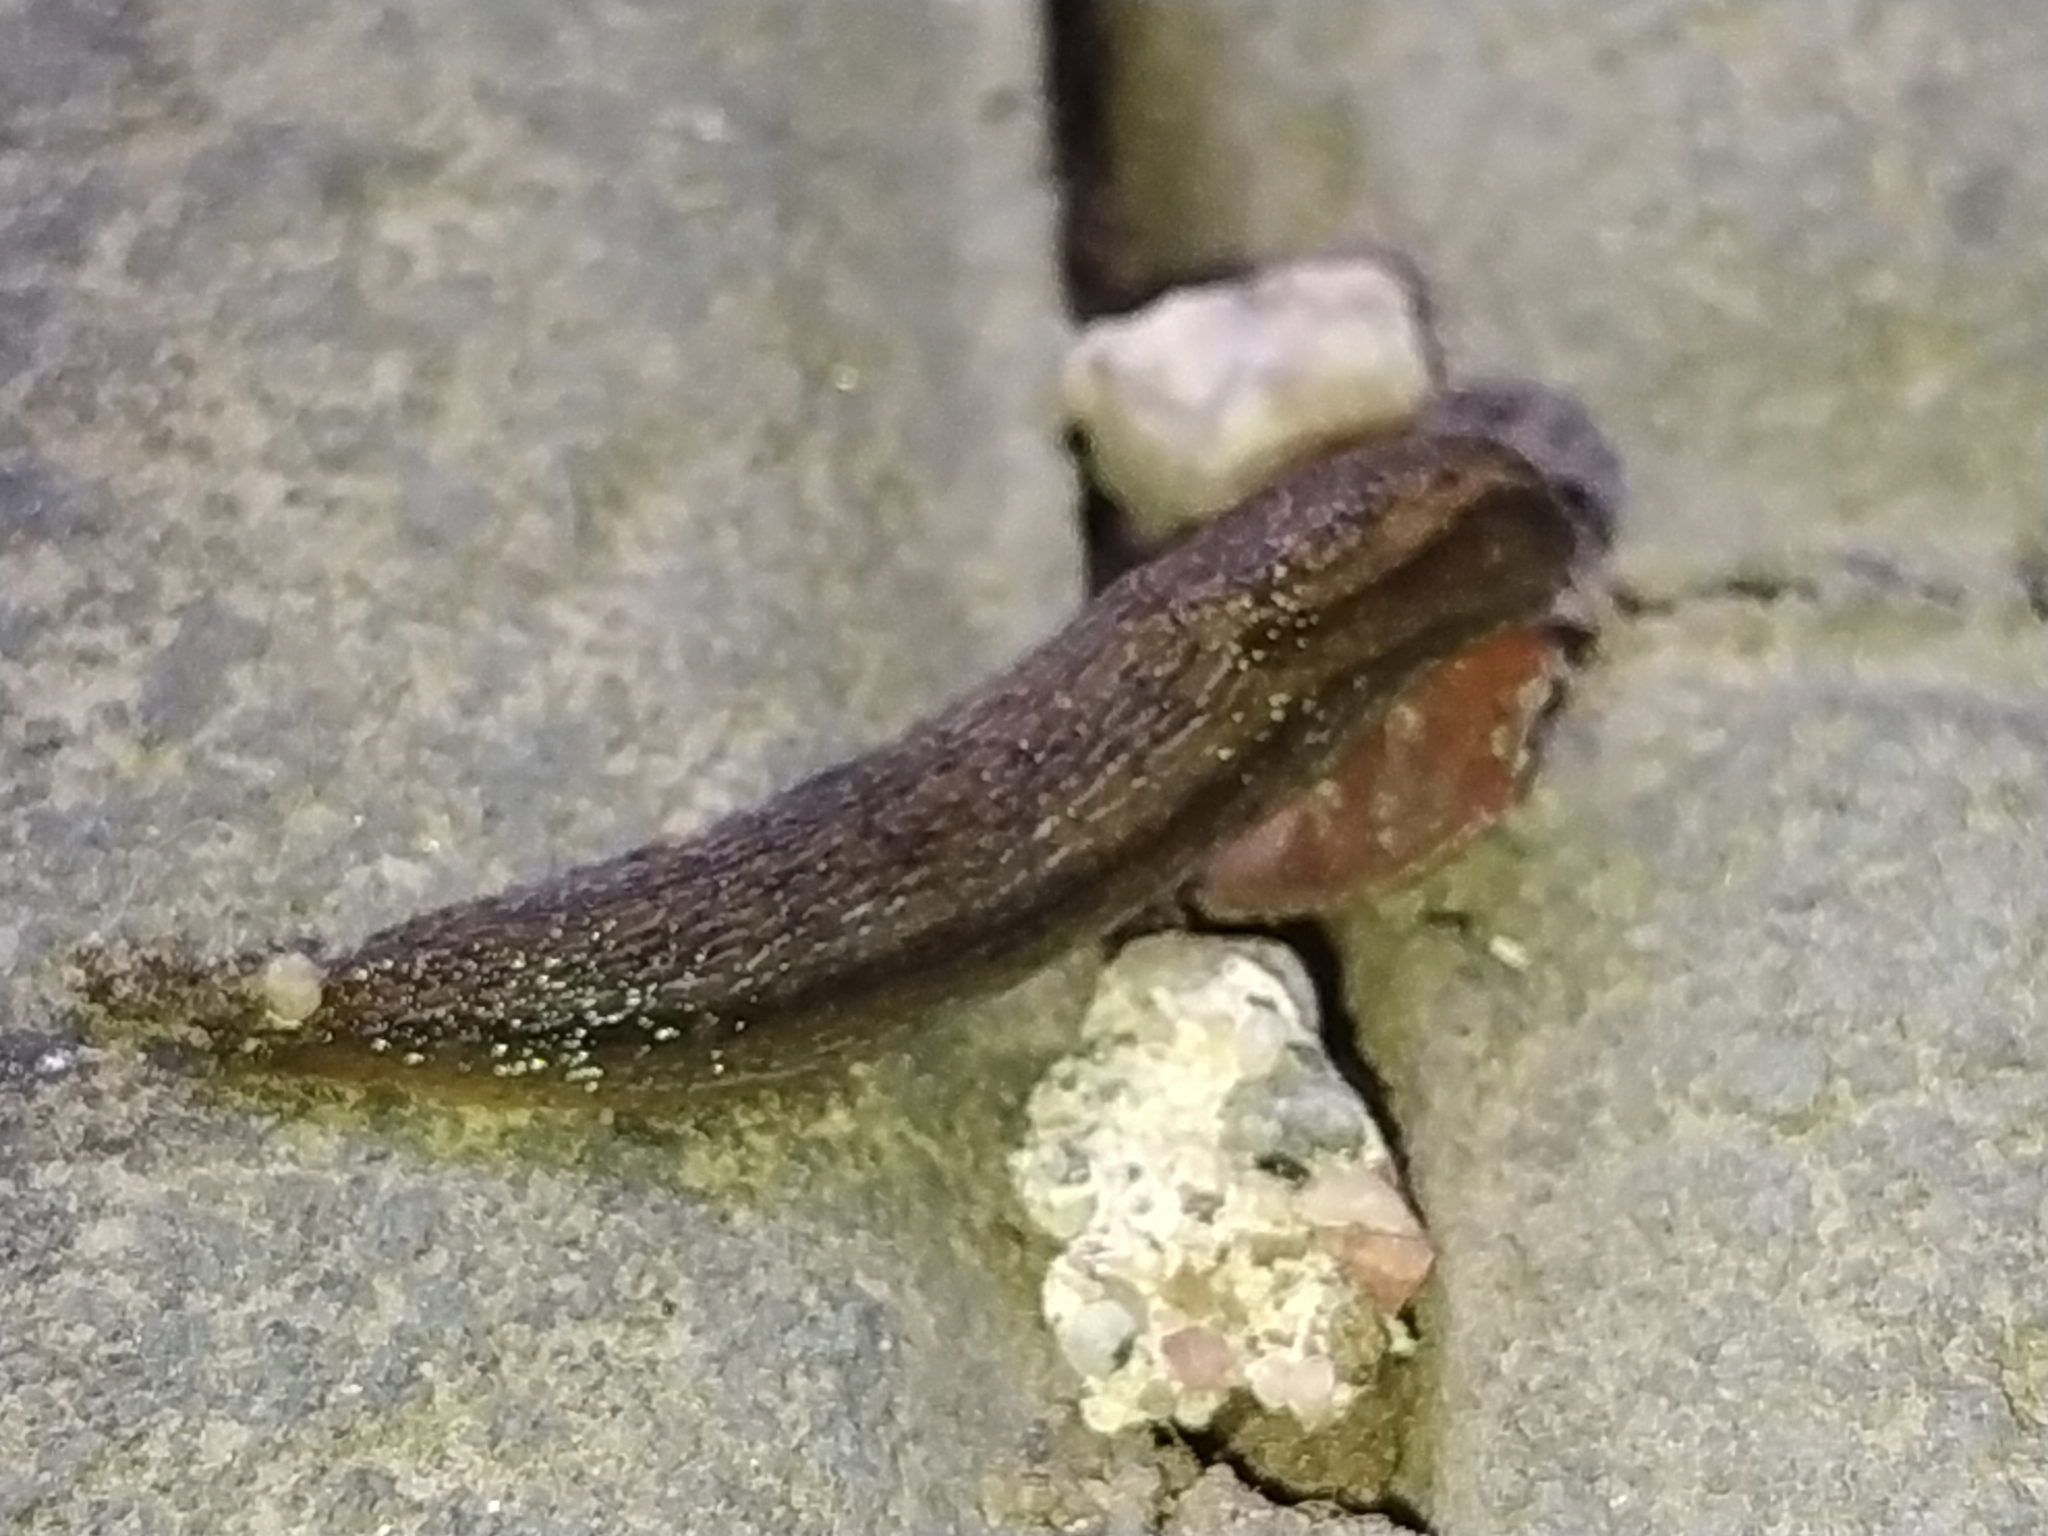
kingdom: Animalia
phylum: Mollusca
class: Gastropoda
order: Stylommatophora
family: Arionidae
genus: Arion
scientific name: Arion fasciatus
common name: Orange-banded arion
